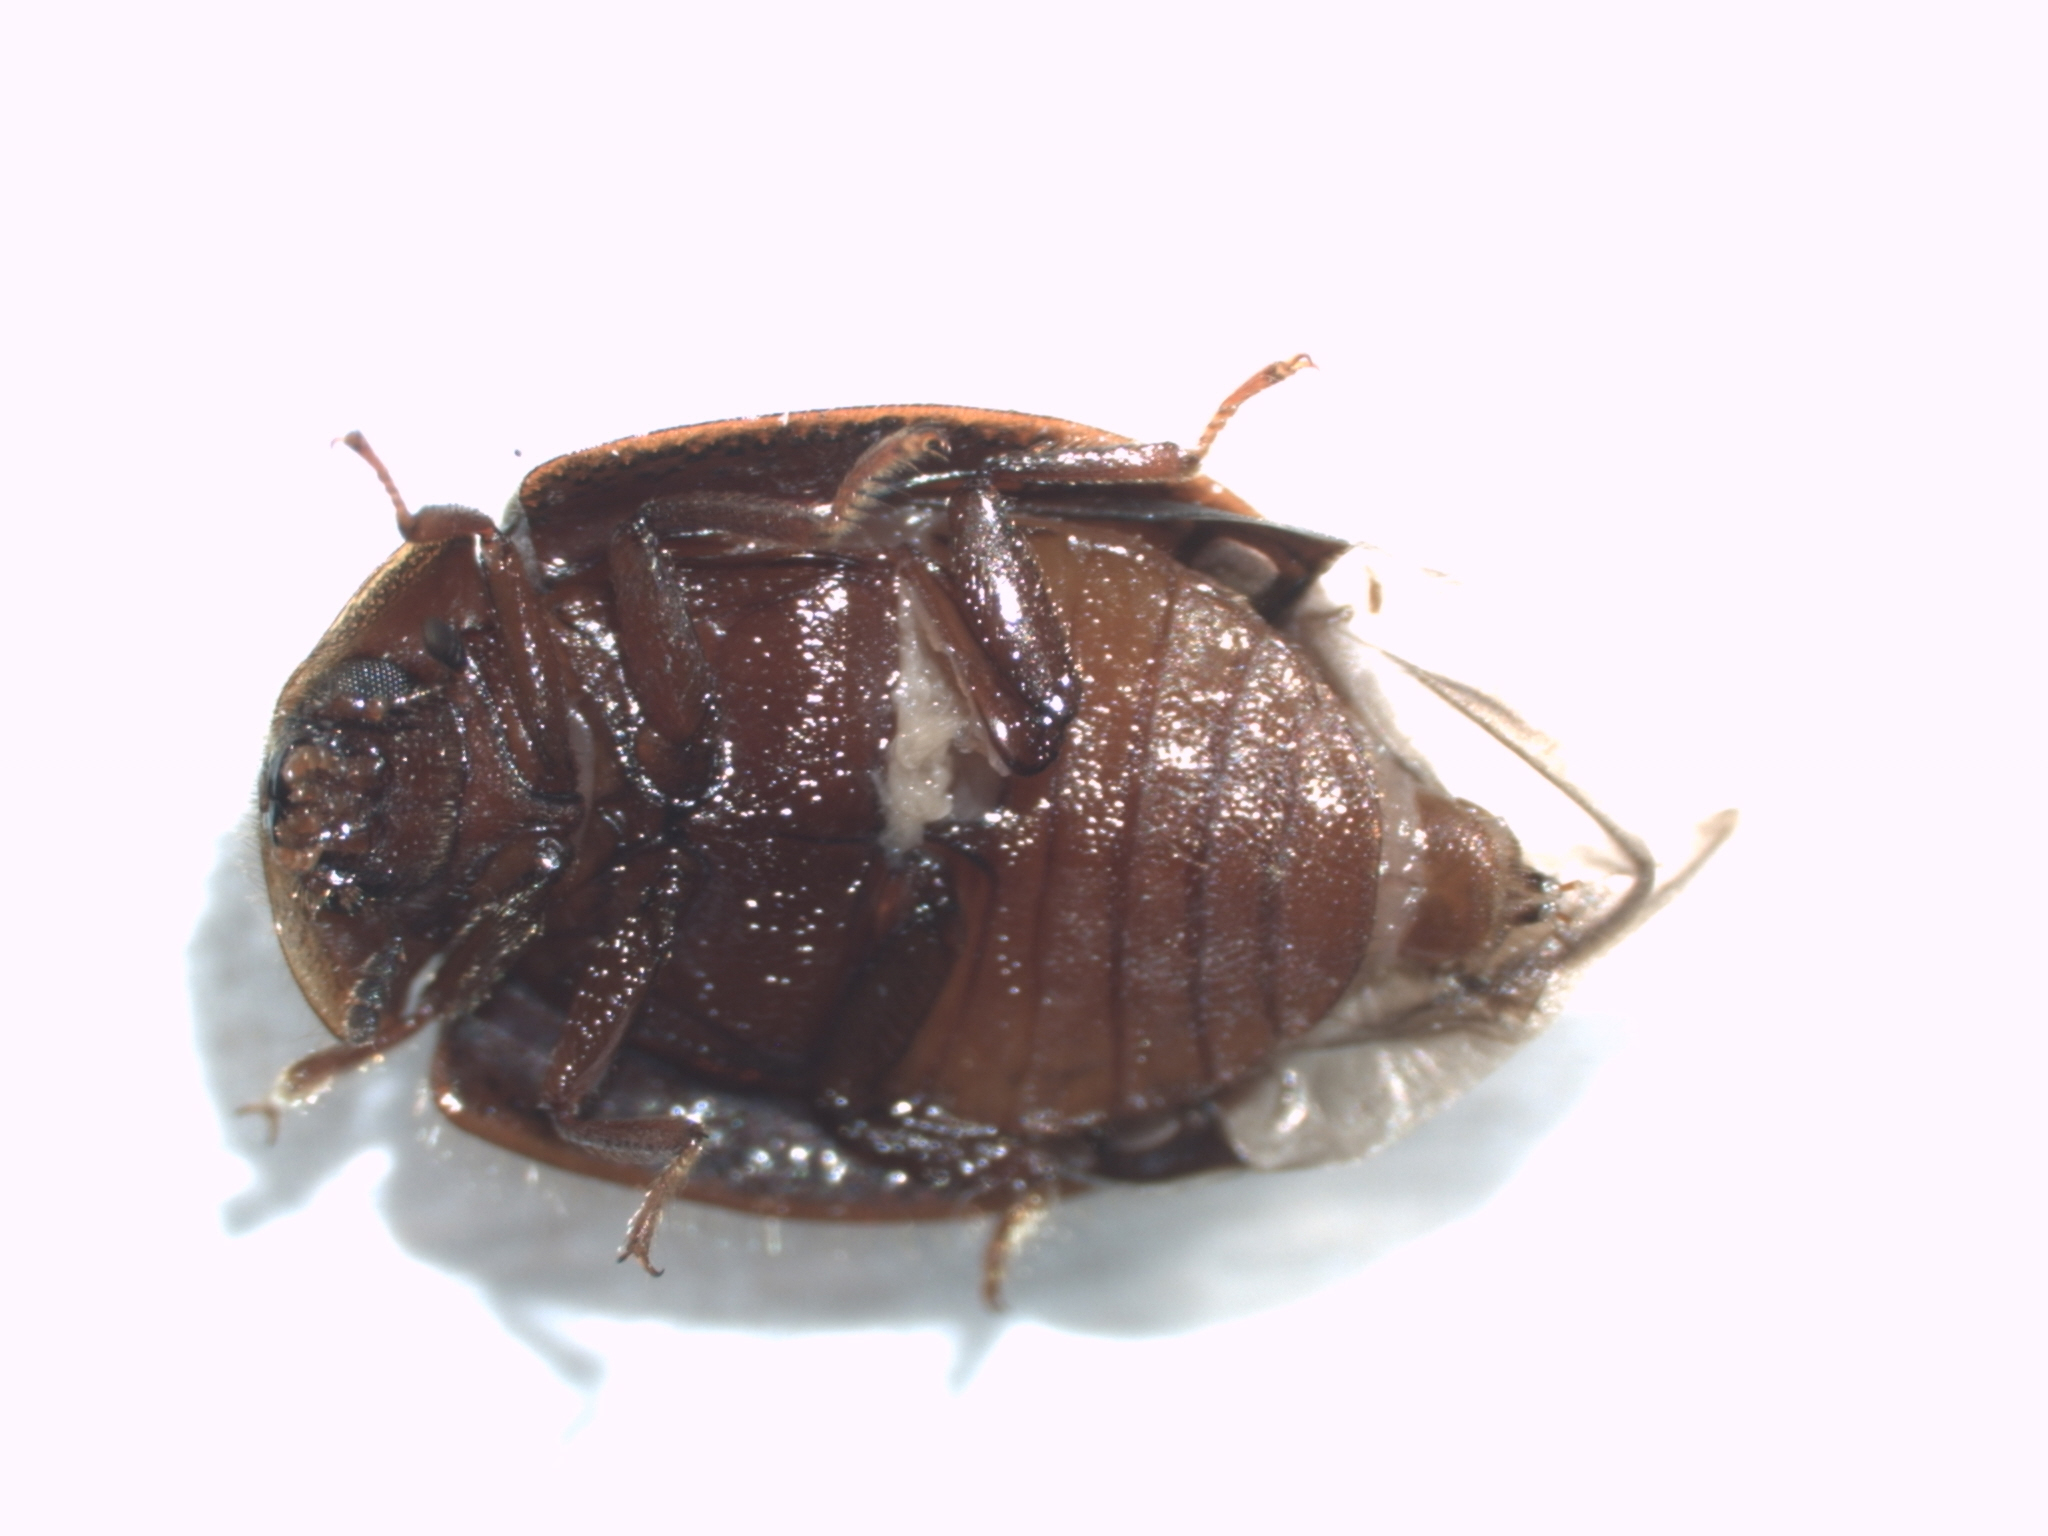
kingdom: Animalia
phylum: Arthropoda
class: Insecta
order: Coleoptera
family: Trogossitidae
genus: Thymalus
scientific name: Thymalus marginicollis
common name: Bark-gnawing beetle
